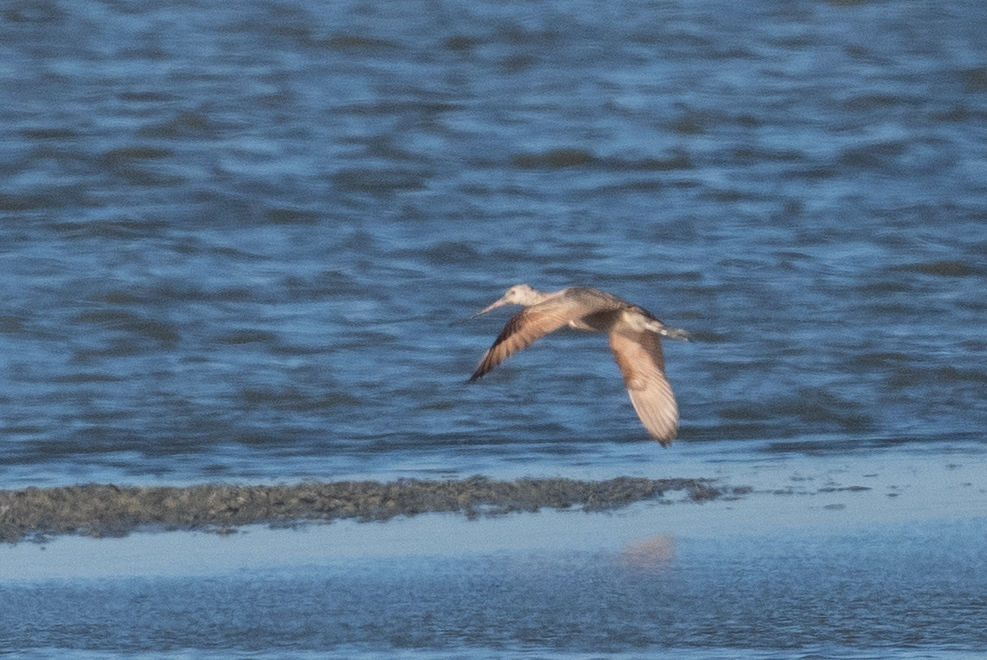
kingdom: Animalia
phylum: Chordata
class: Aves
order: Charadriiformes
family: Scolopacidae
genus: Limosa
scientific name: Limosa fedoa
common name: Marbled godwit
